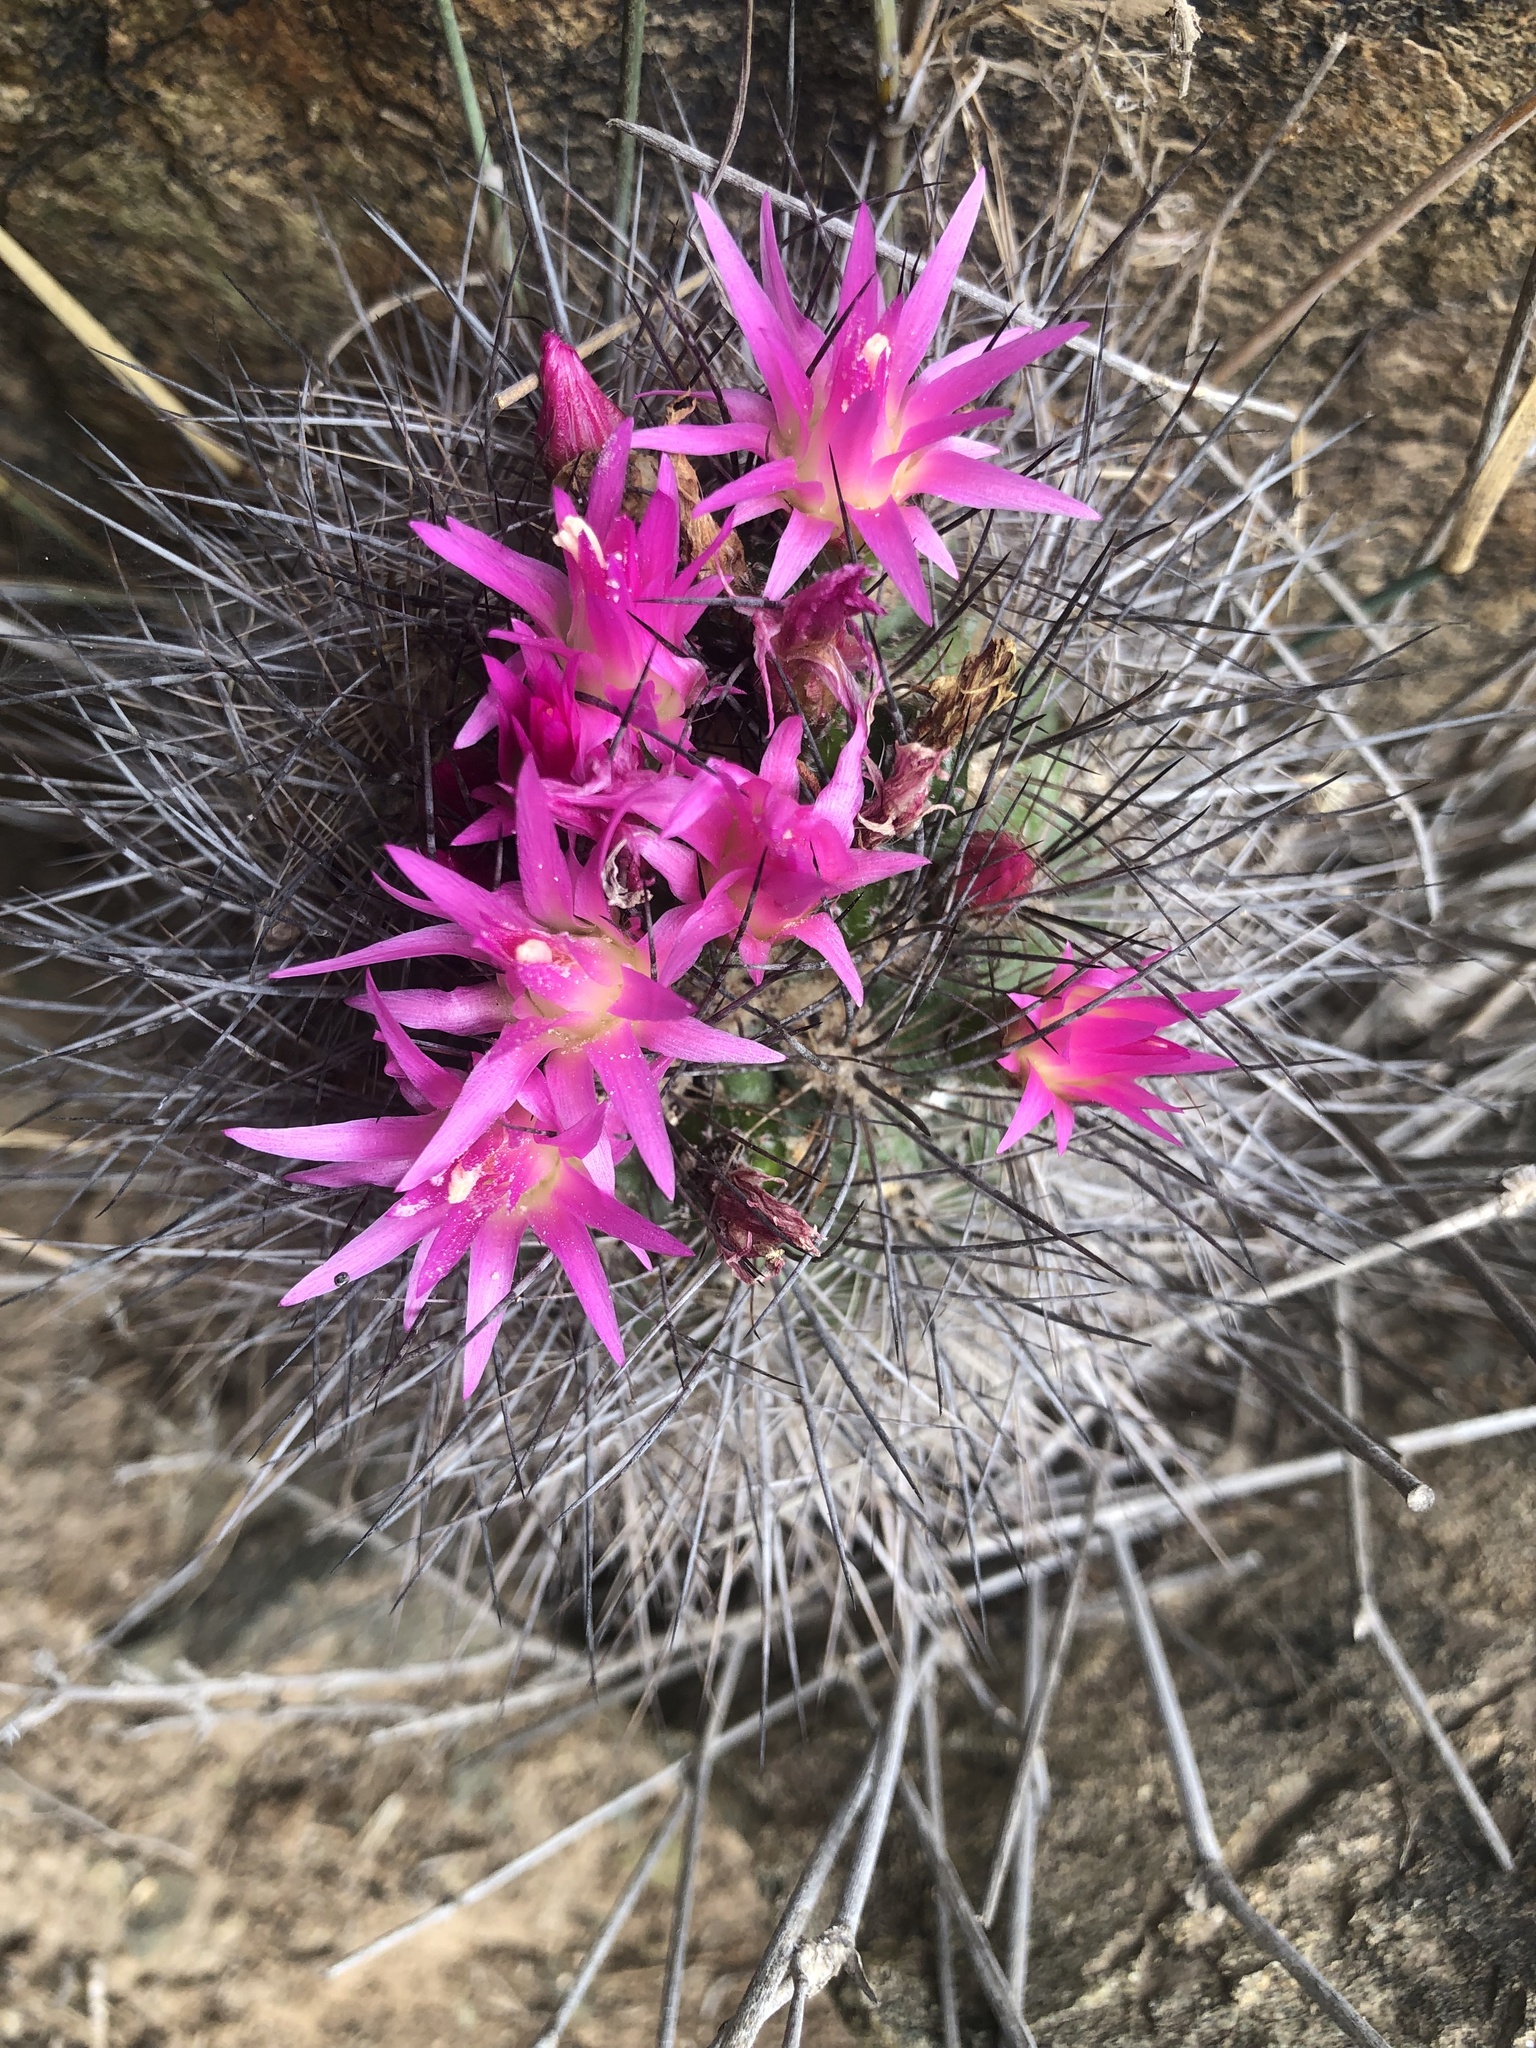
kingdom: Plantae
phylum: Tracheophyta
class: Magnoliopsida
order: Caryophyllales
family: Cactaceae
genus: Eriosyce
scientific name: Eriosyce wagenknechtii
